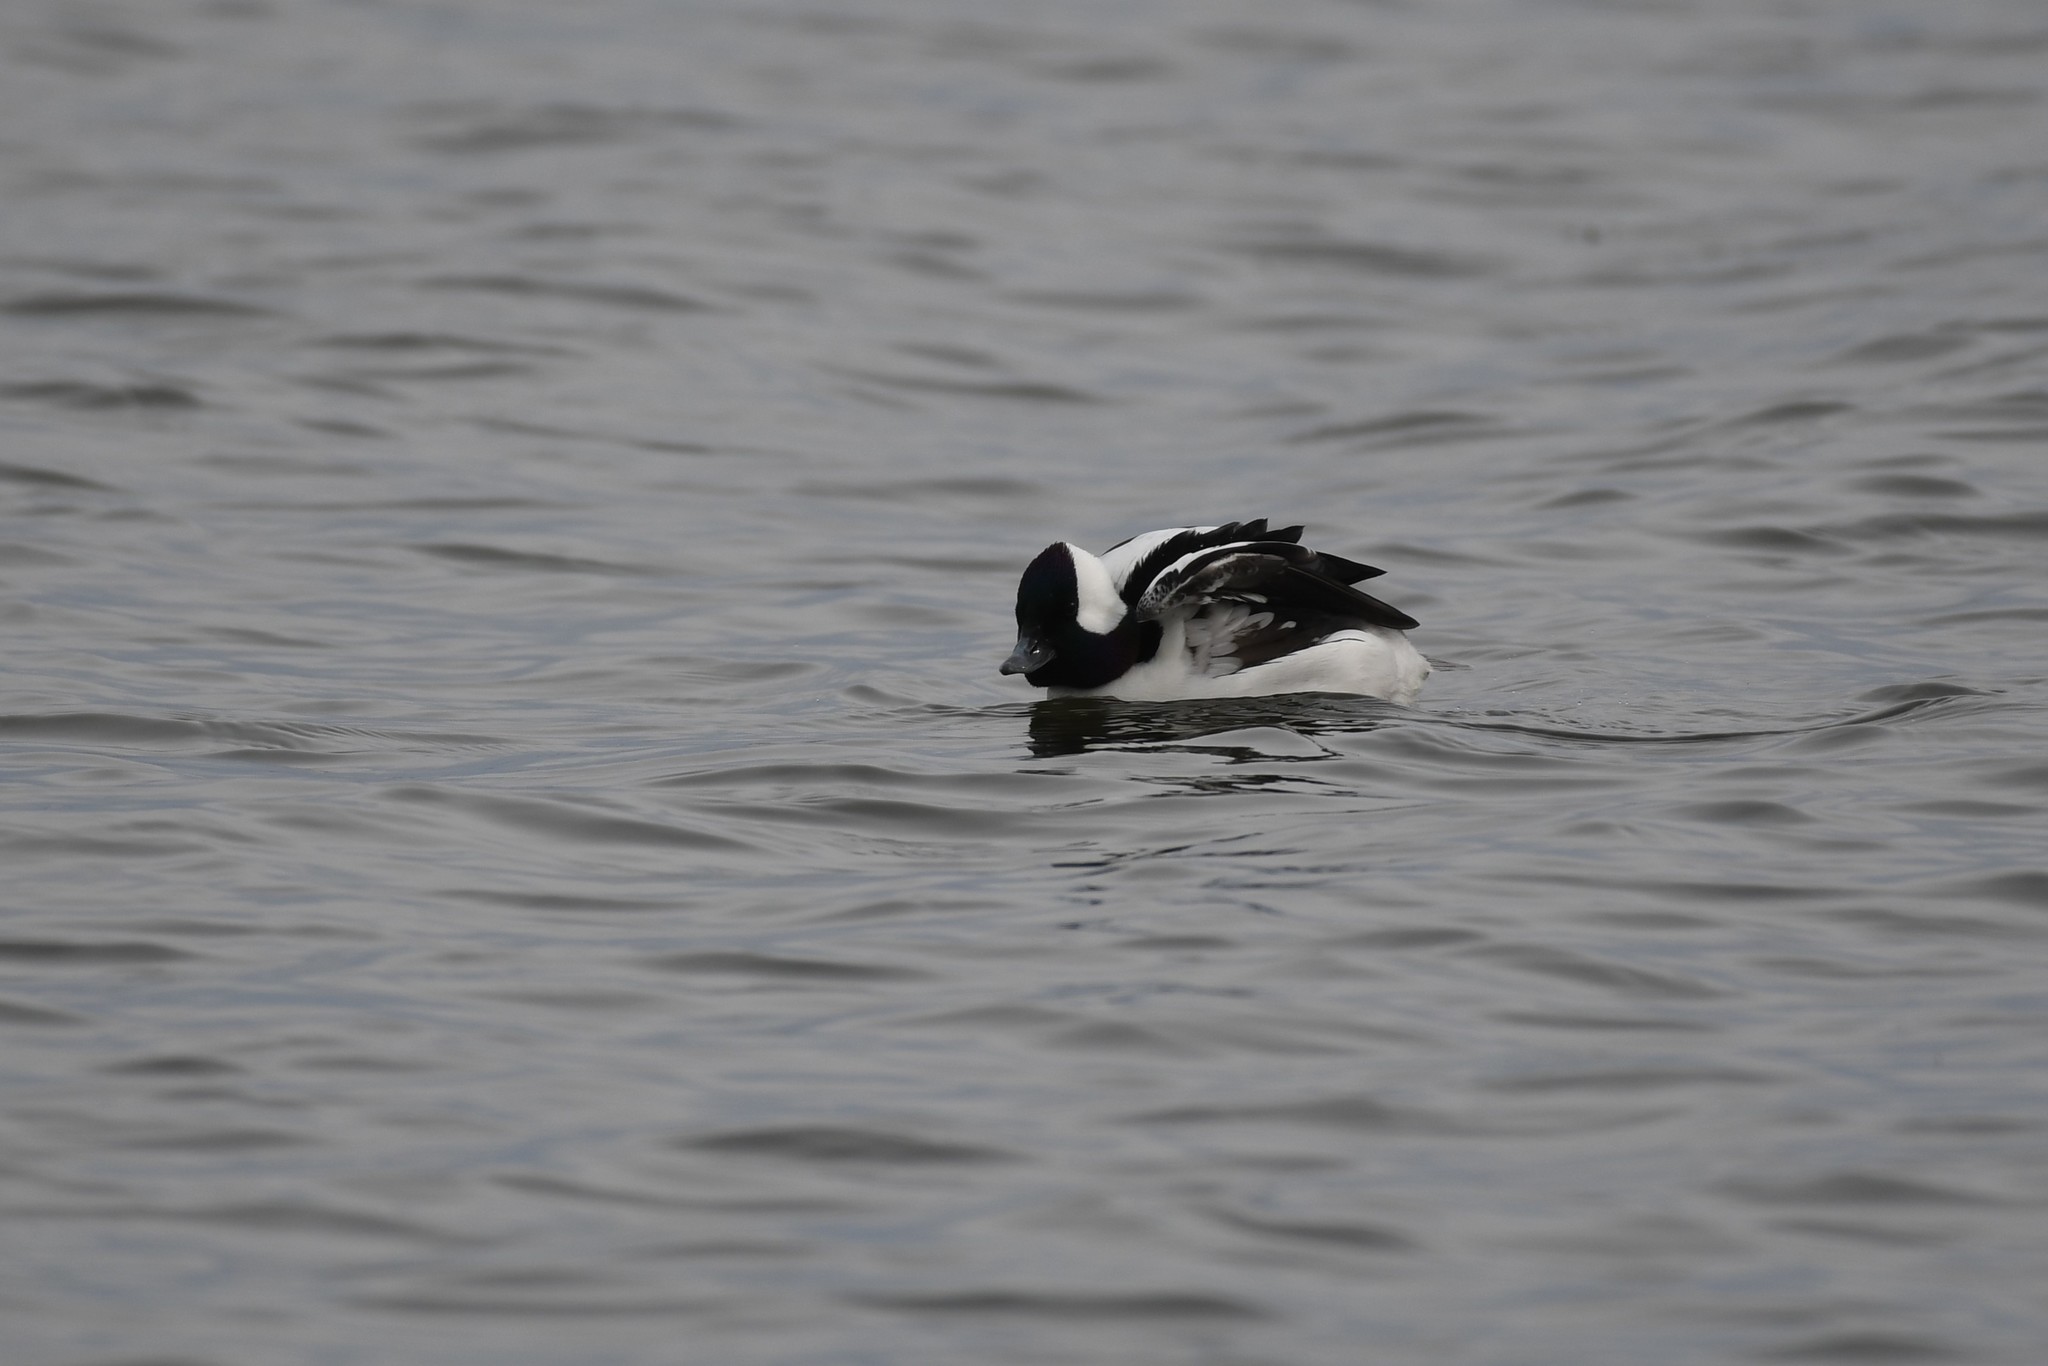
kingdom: Animalia
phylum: Chordata
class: Aves
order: Anseriformes
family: Anatidae
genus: Bucephala
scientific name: Bucephala albeola
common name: Bufflehead
